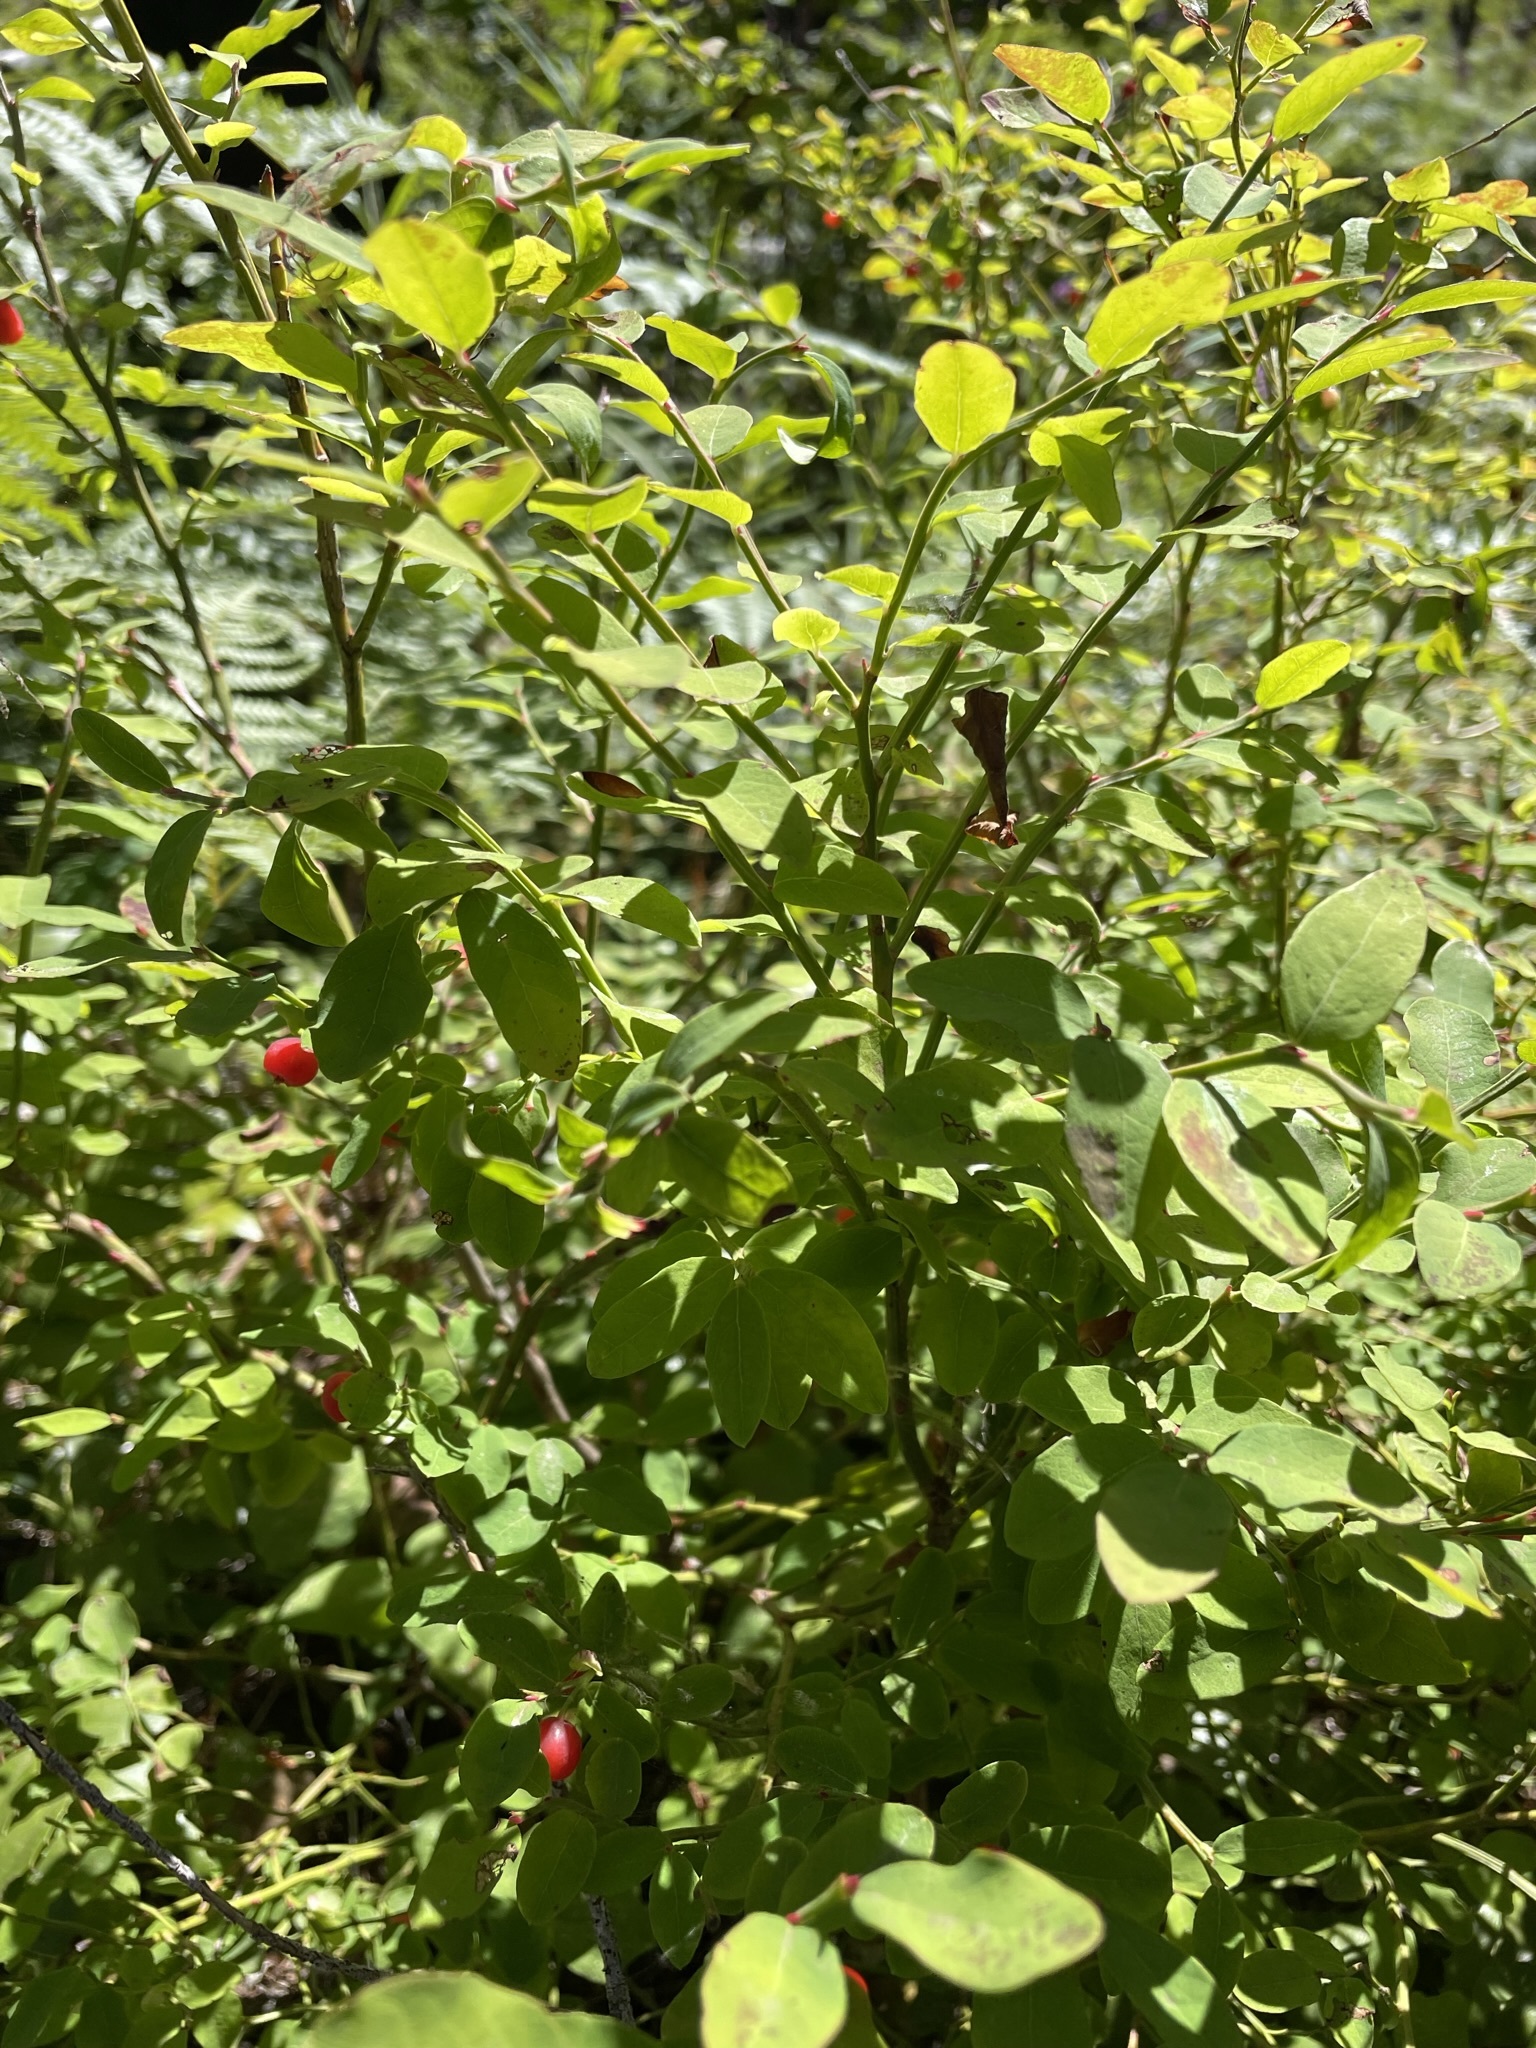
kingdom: Plantae
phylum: Tracheophyta
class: Magnoliopsida
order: Ericales
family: Ericaceae
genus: Vaccinium
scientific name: Vaccinium parvifolium
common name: Red-huckleberry
